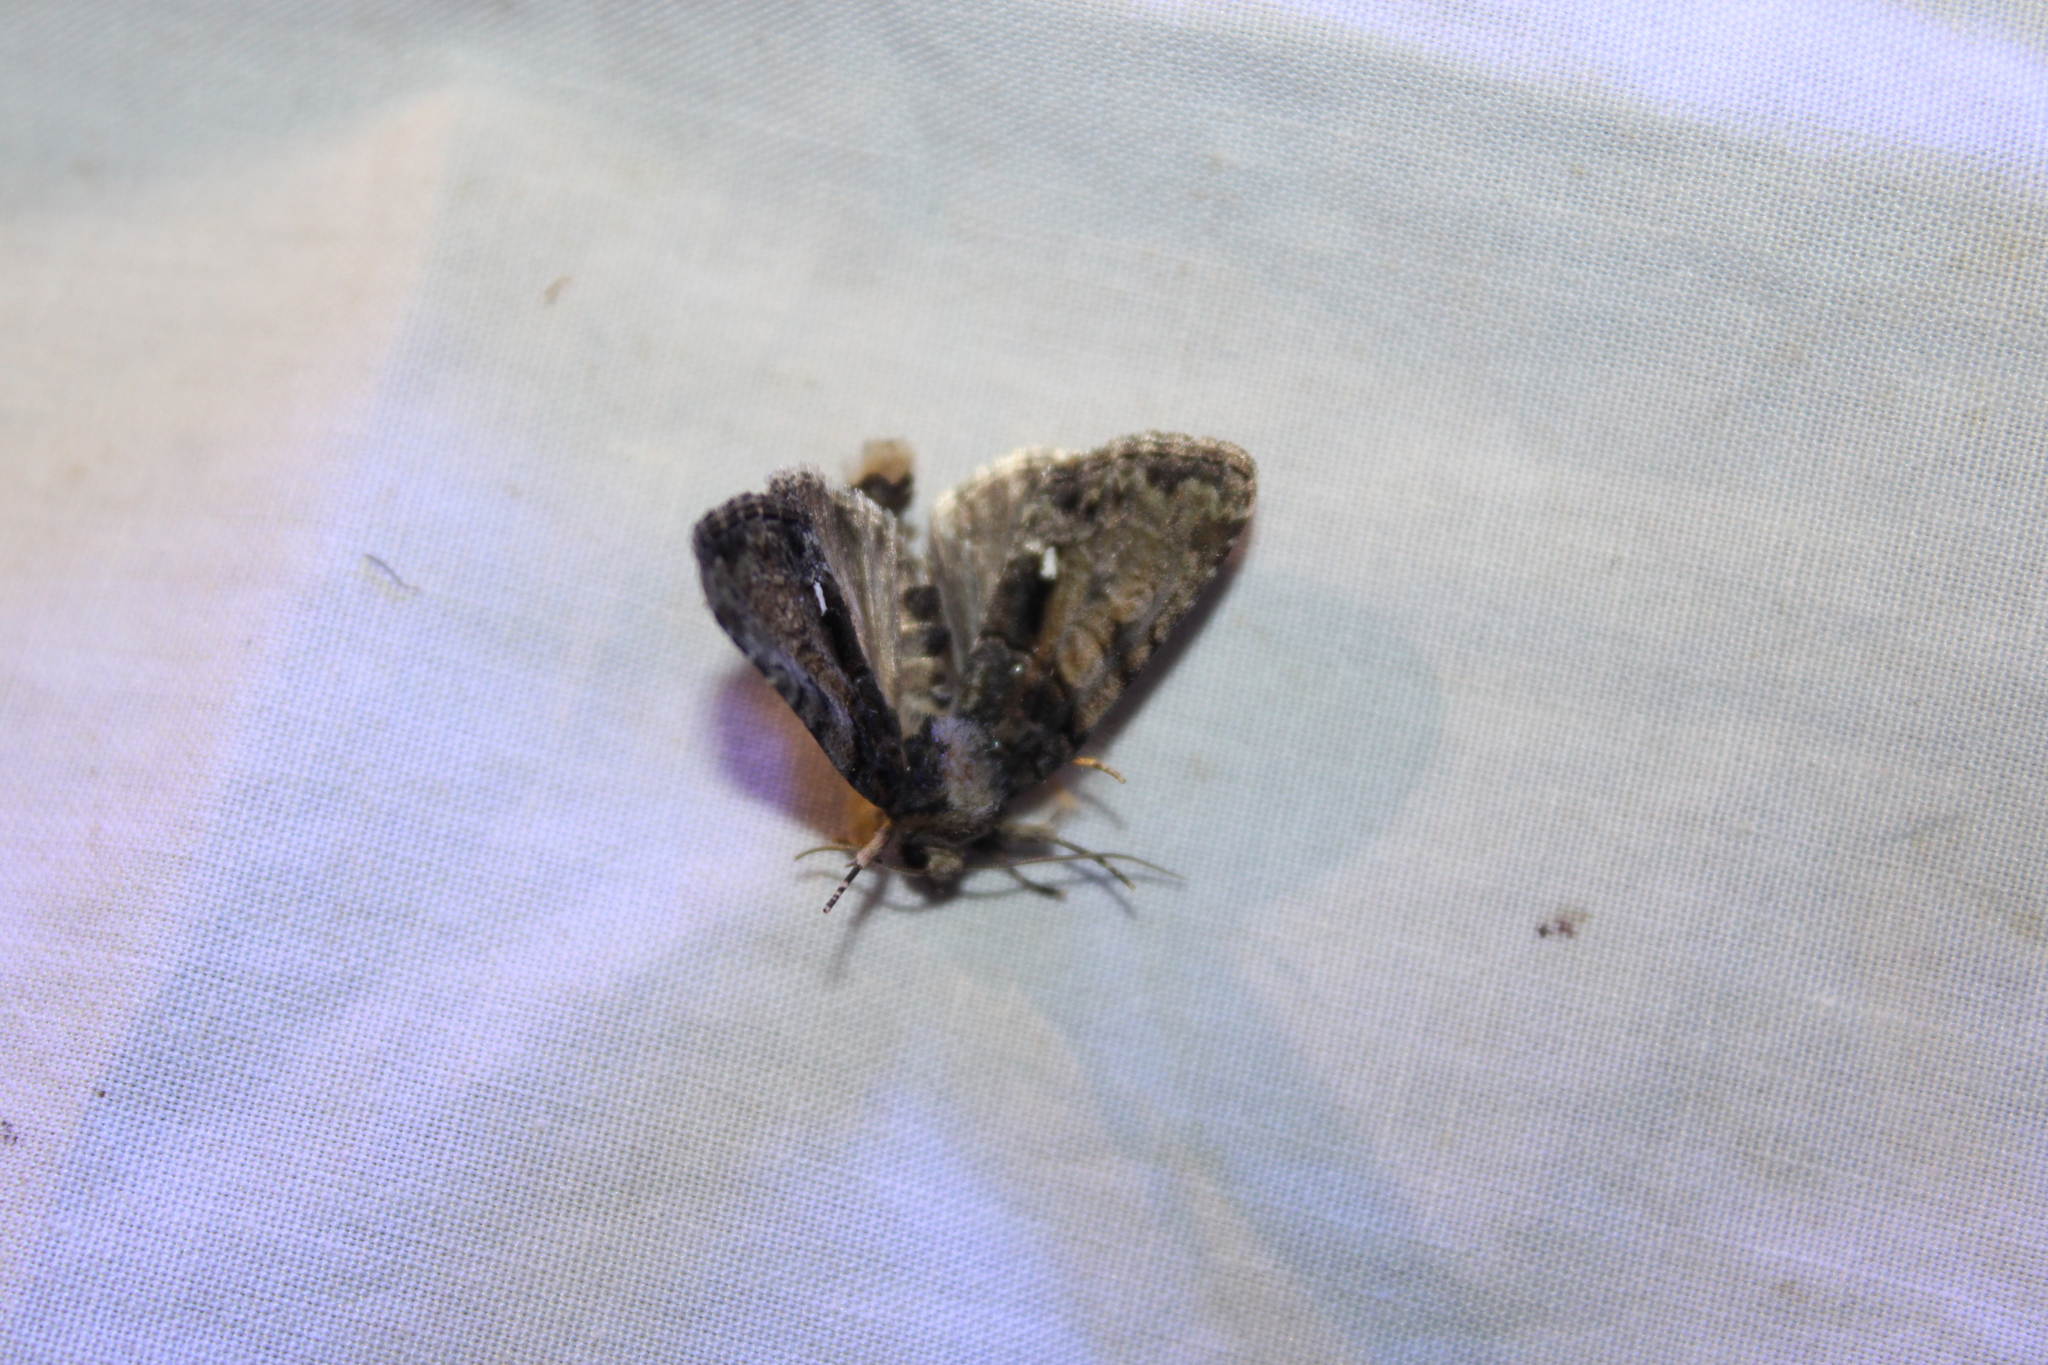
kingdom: Animalia
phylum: Arthropoda
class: Insecta
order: Lepidoptera
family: Noctuidae
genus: Chytonix
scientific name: Chytonix palliatricula
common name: Cloaked marvel
